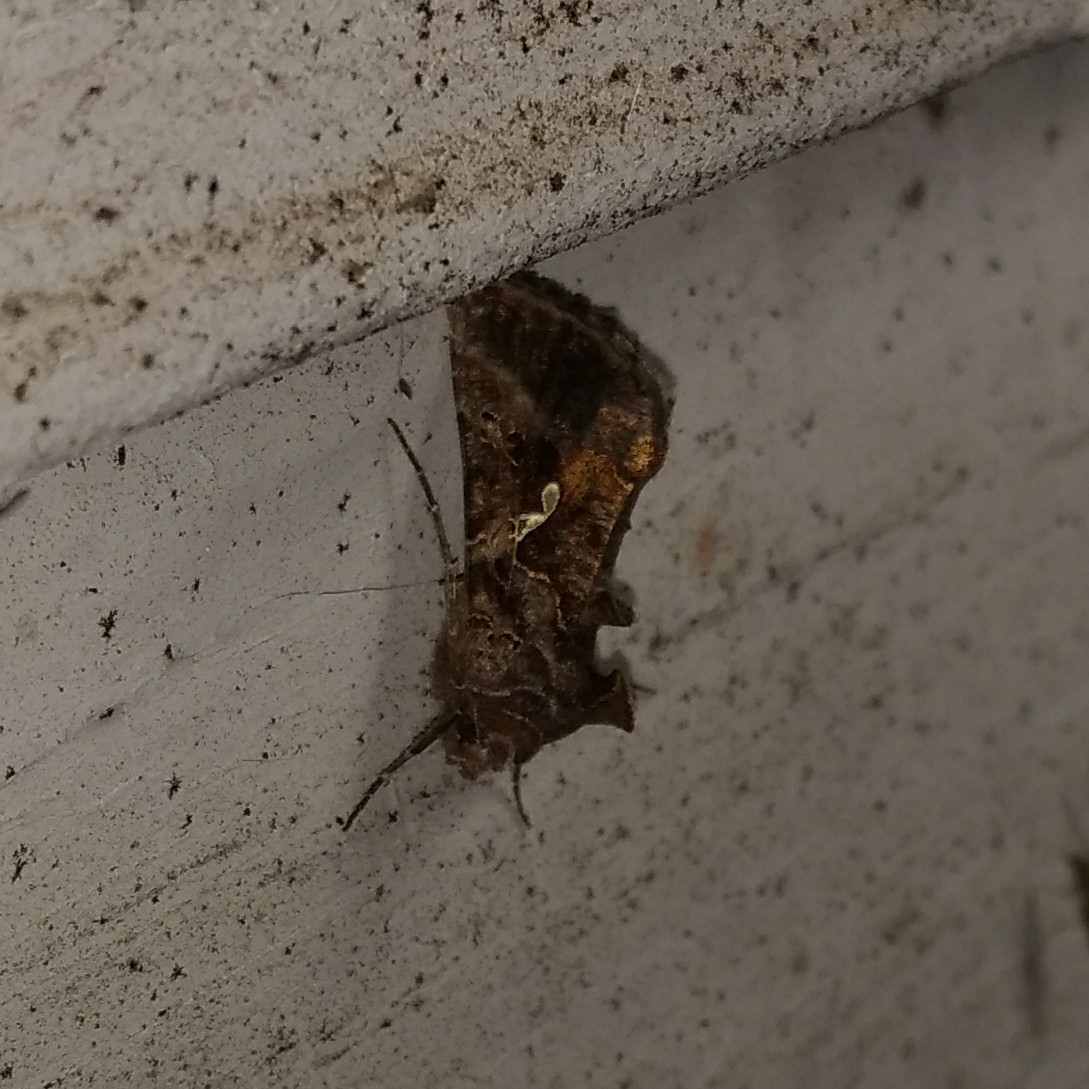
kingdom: Animalia
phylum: Arthropoda
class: Insecta
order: Lepidoptera
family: Noctuidae
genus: Autographa
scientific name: Autographa precationis
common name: Common looper moth
